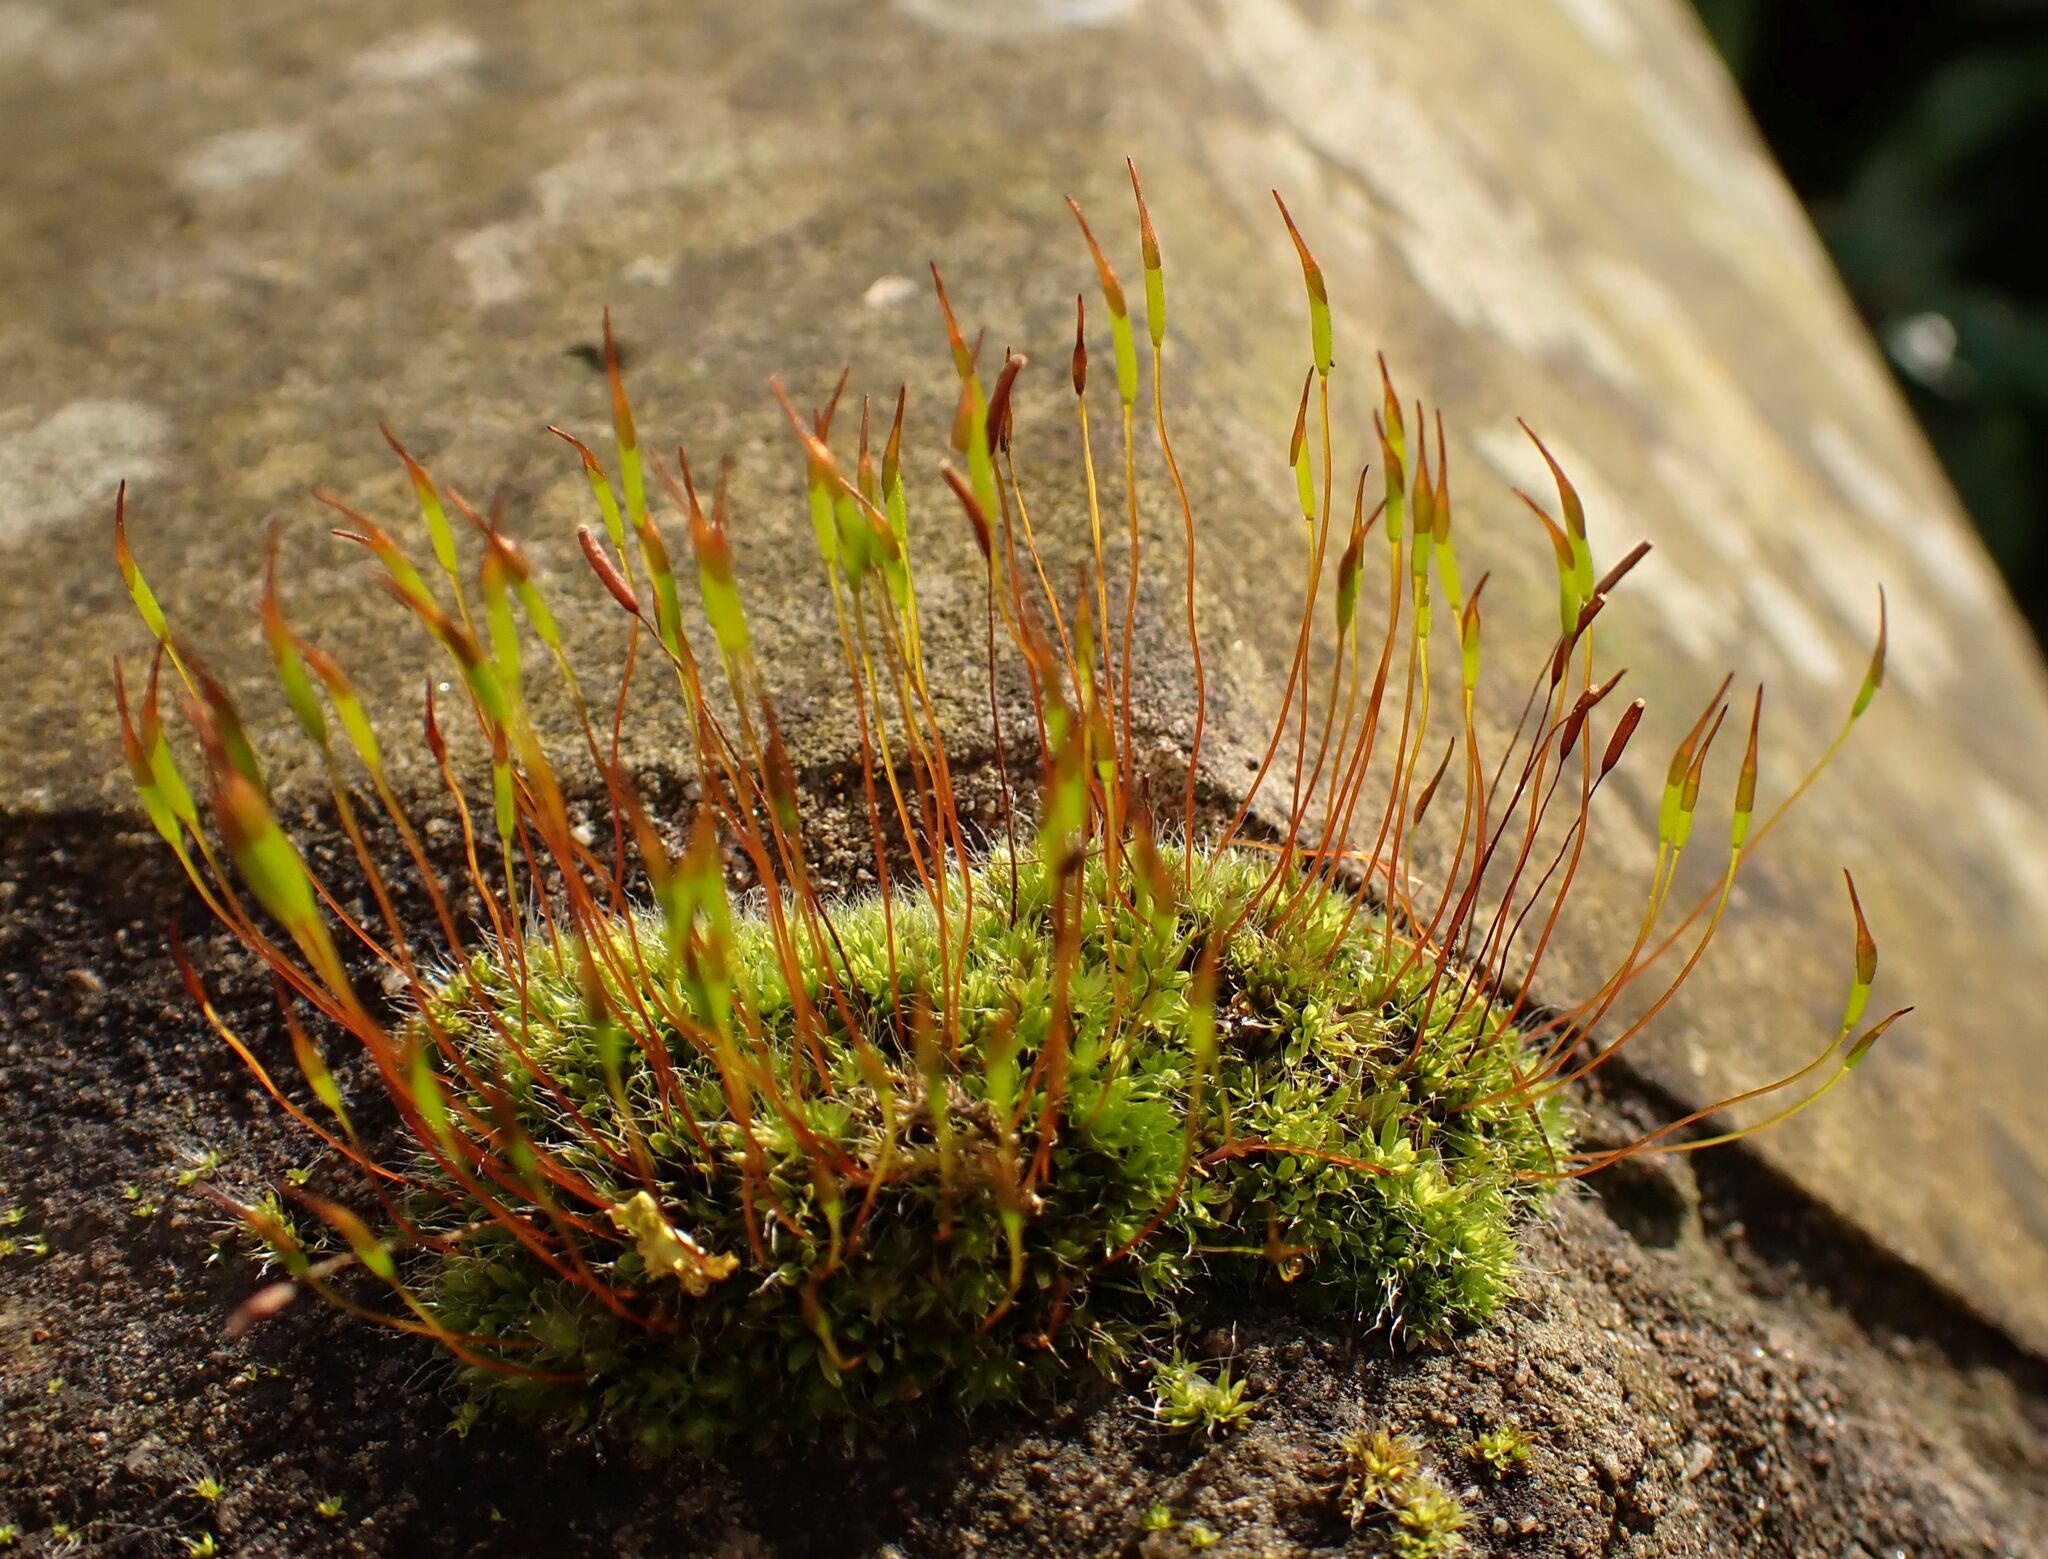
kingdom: Plantae
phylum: Bryophyta
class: Bryopsida
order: Pottiales
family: Pottiaceae
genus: Tortula
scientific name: Tortula muralis
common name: Wall screw-moss
